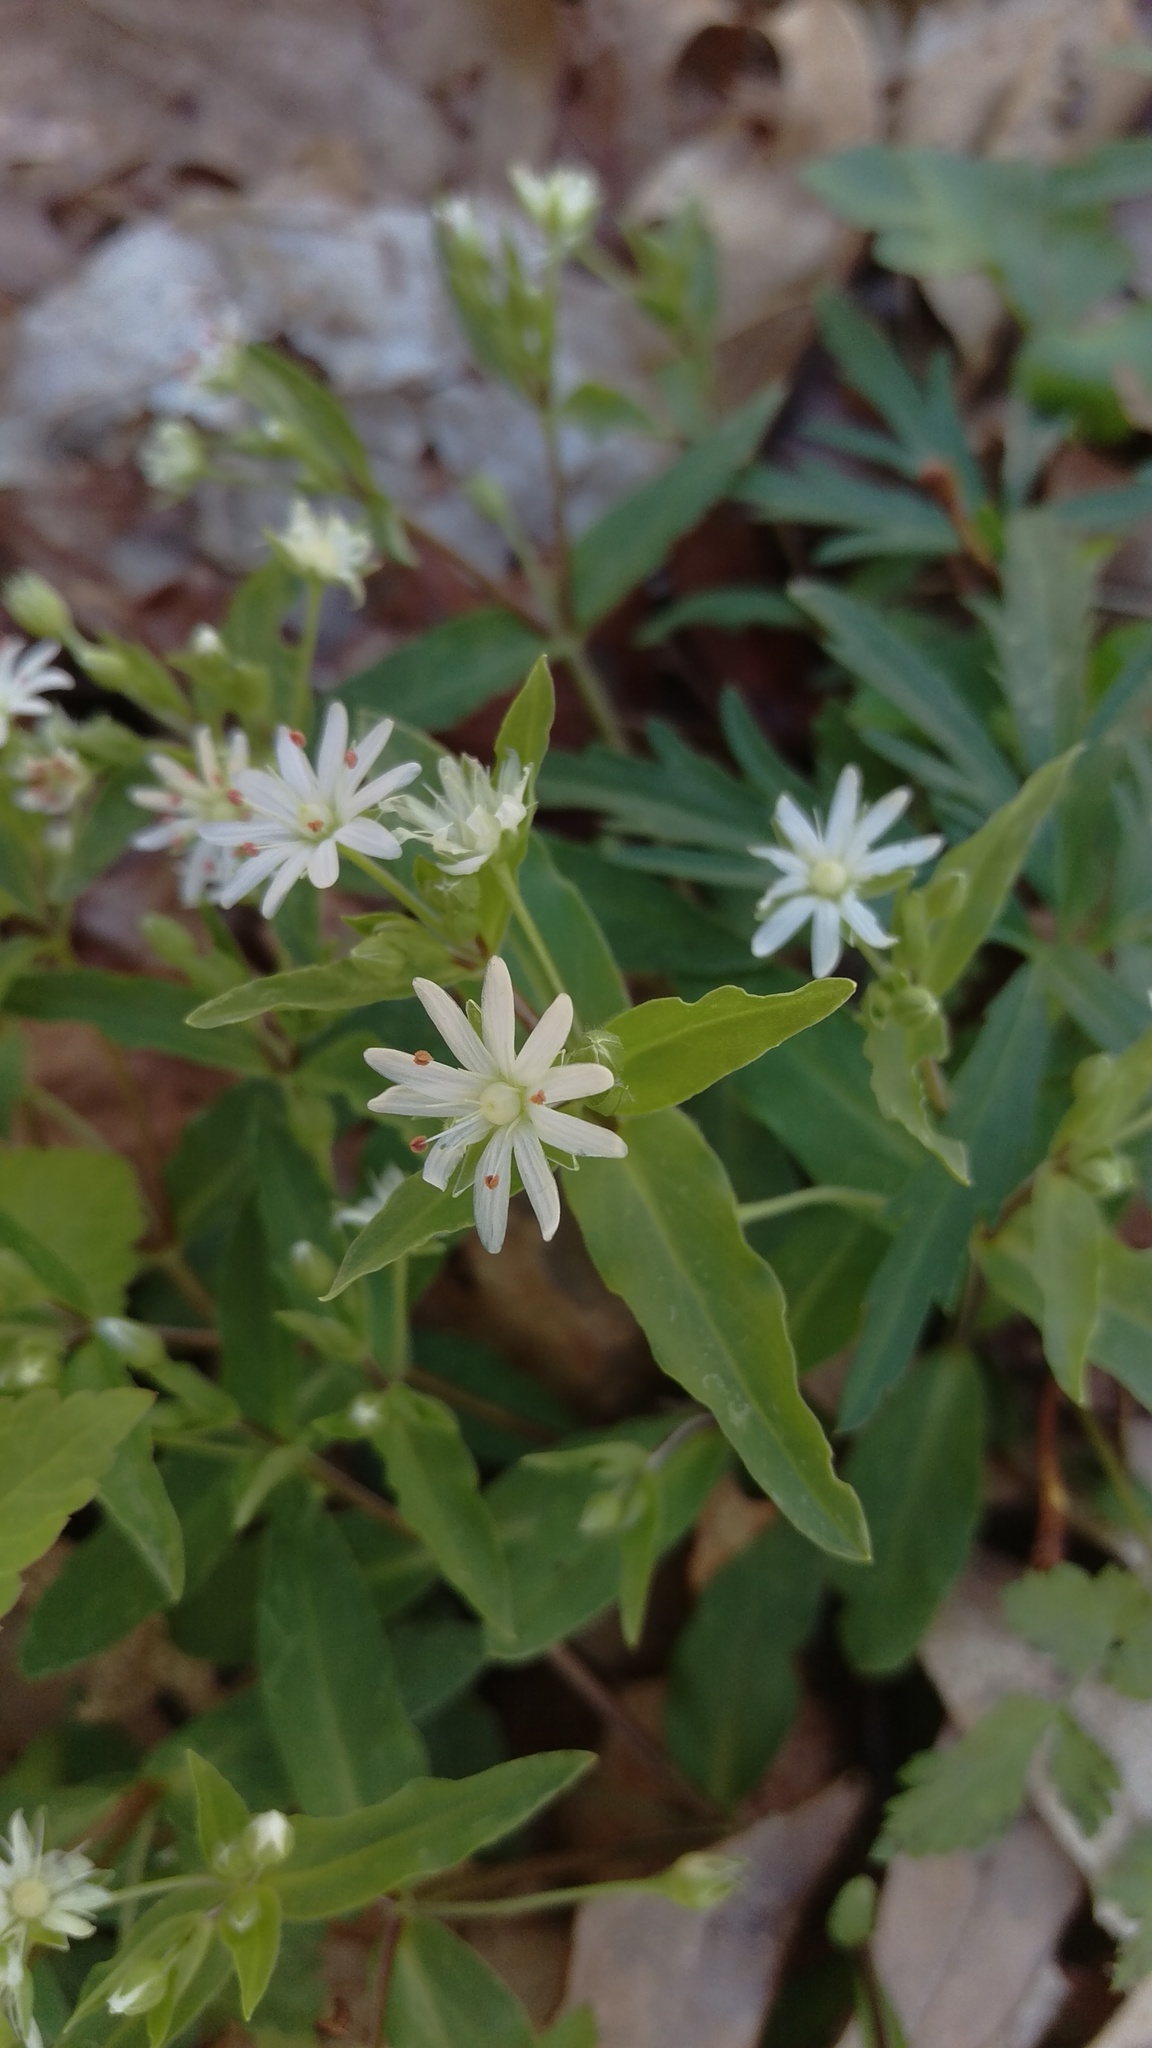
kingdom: Plantae
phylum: Tracheophyta
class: Magnoliopsida
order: Caryophyllales
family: Caryophyllaceae
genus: Stellaria
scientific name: Stellaria pubera
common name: Star chickweed
